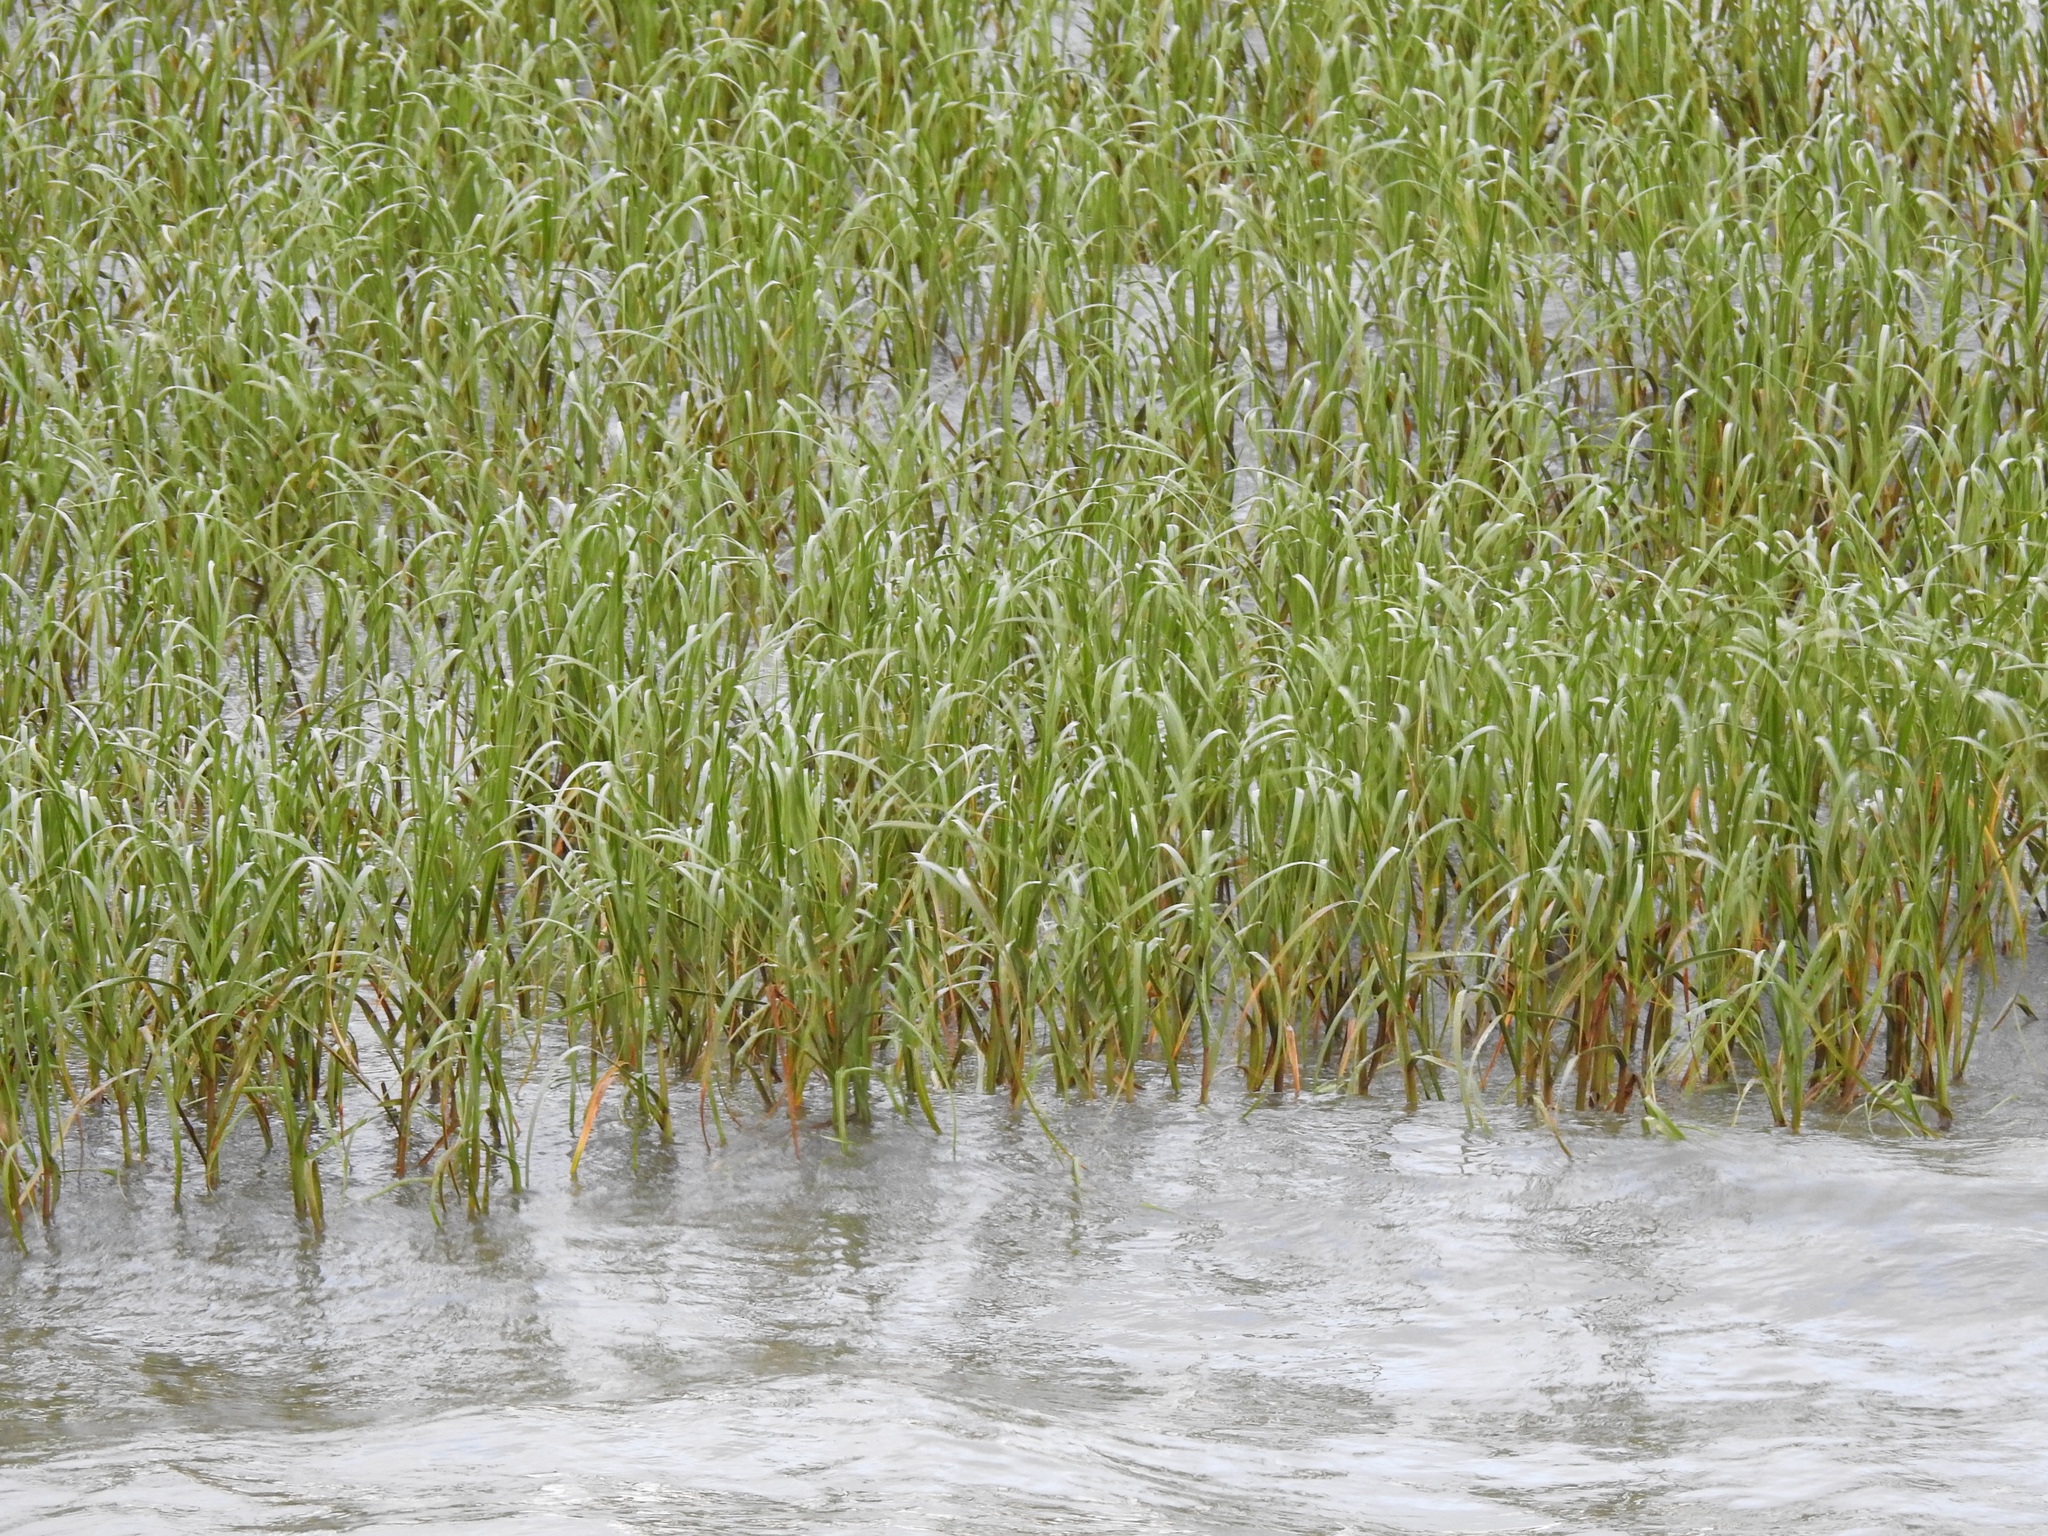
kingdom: Plantae
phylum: Tracheophyta
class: Liliopsida
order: Poales
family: Poaceae
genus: Sporobolus
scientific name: Sporobolus alterniflorus
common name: Atlantic cordgrass
